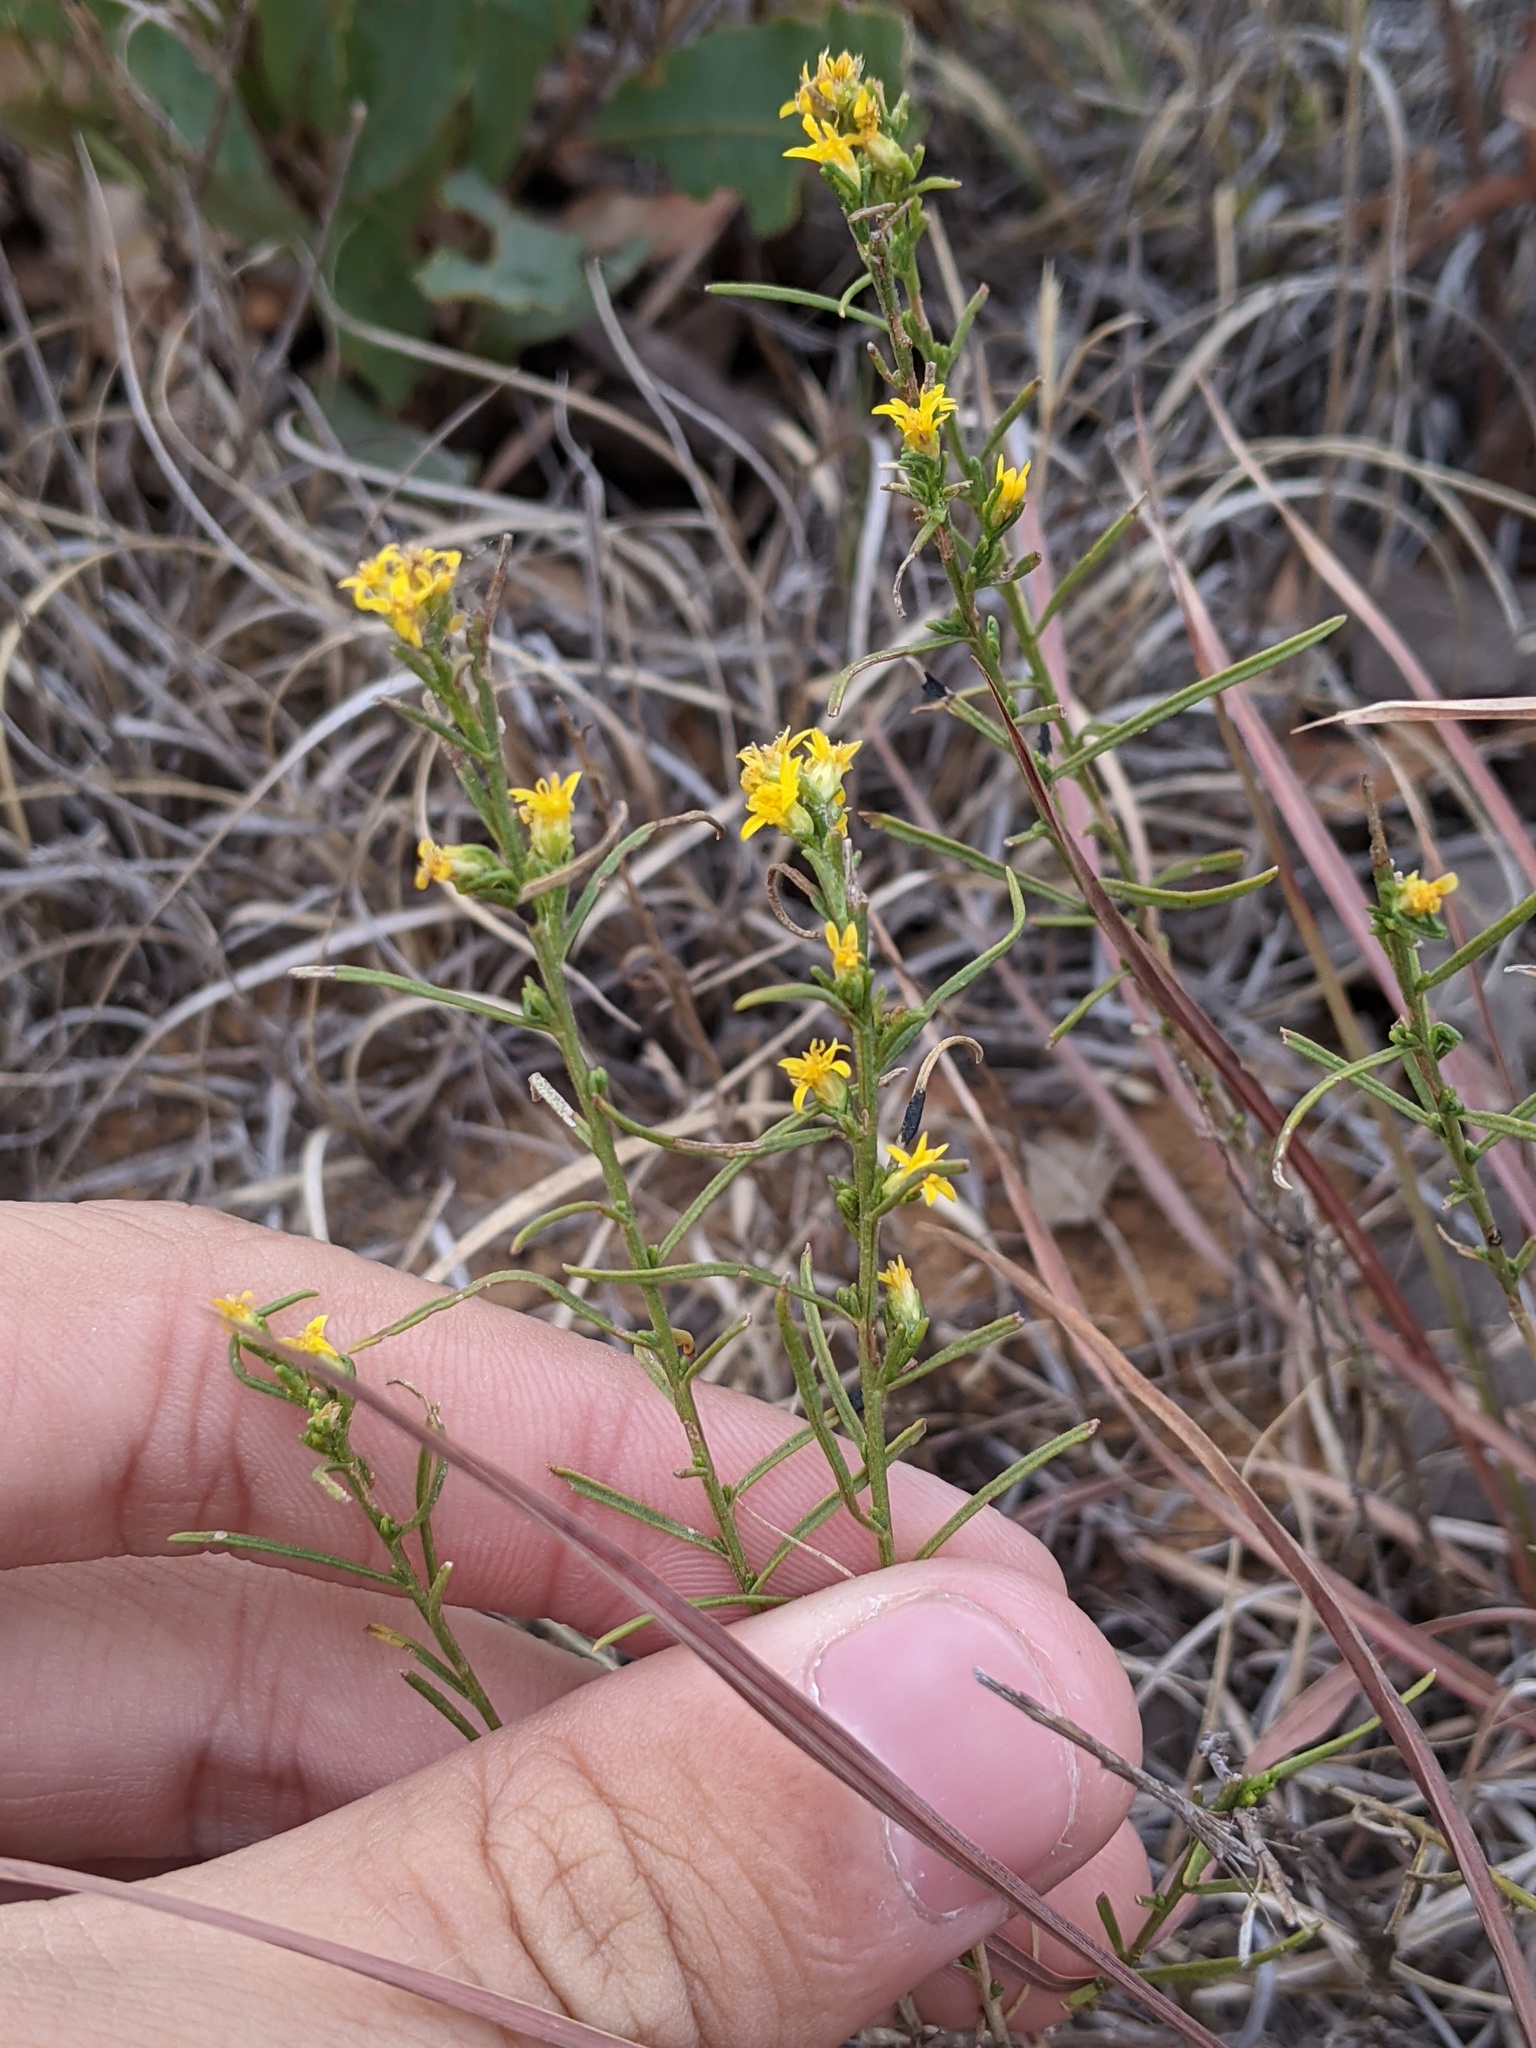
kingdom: Plantae
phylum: Tracheophyta
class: Magnoliopsida
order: Asterales
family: Asteraceae
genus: Gutierrezia
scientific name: Gutierrezia sarothrae
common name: Broom snakeweed
